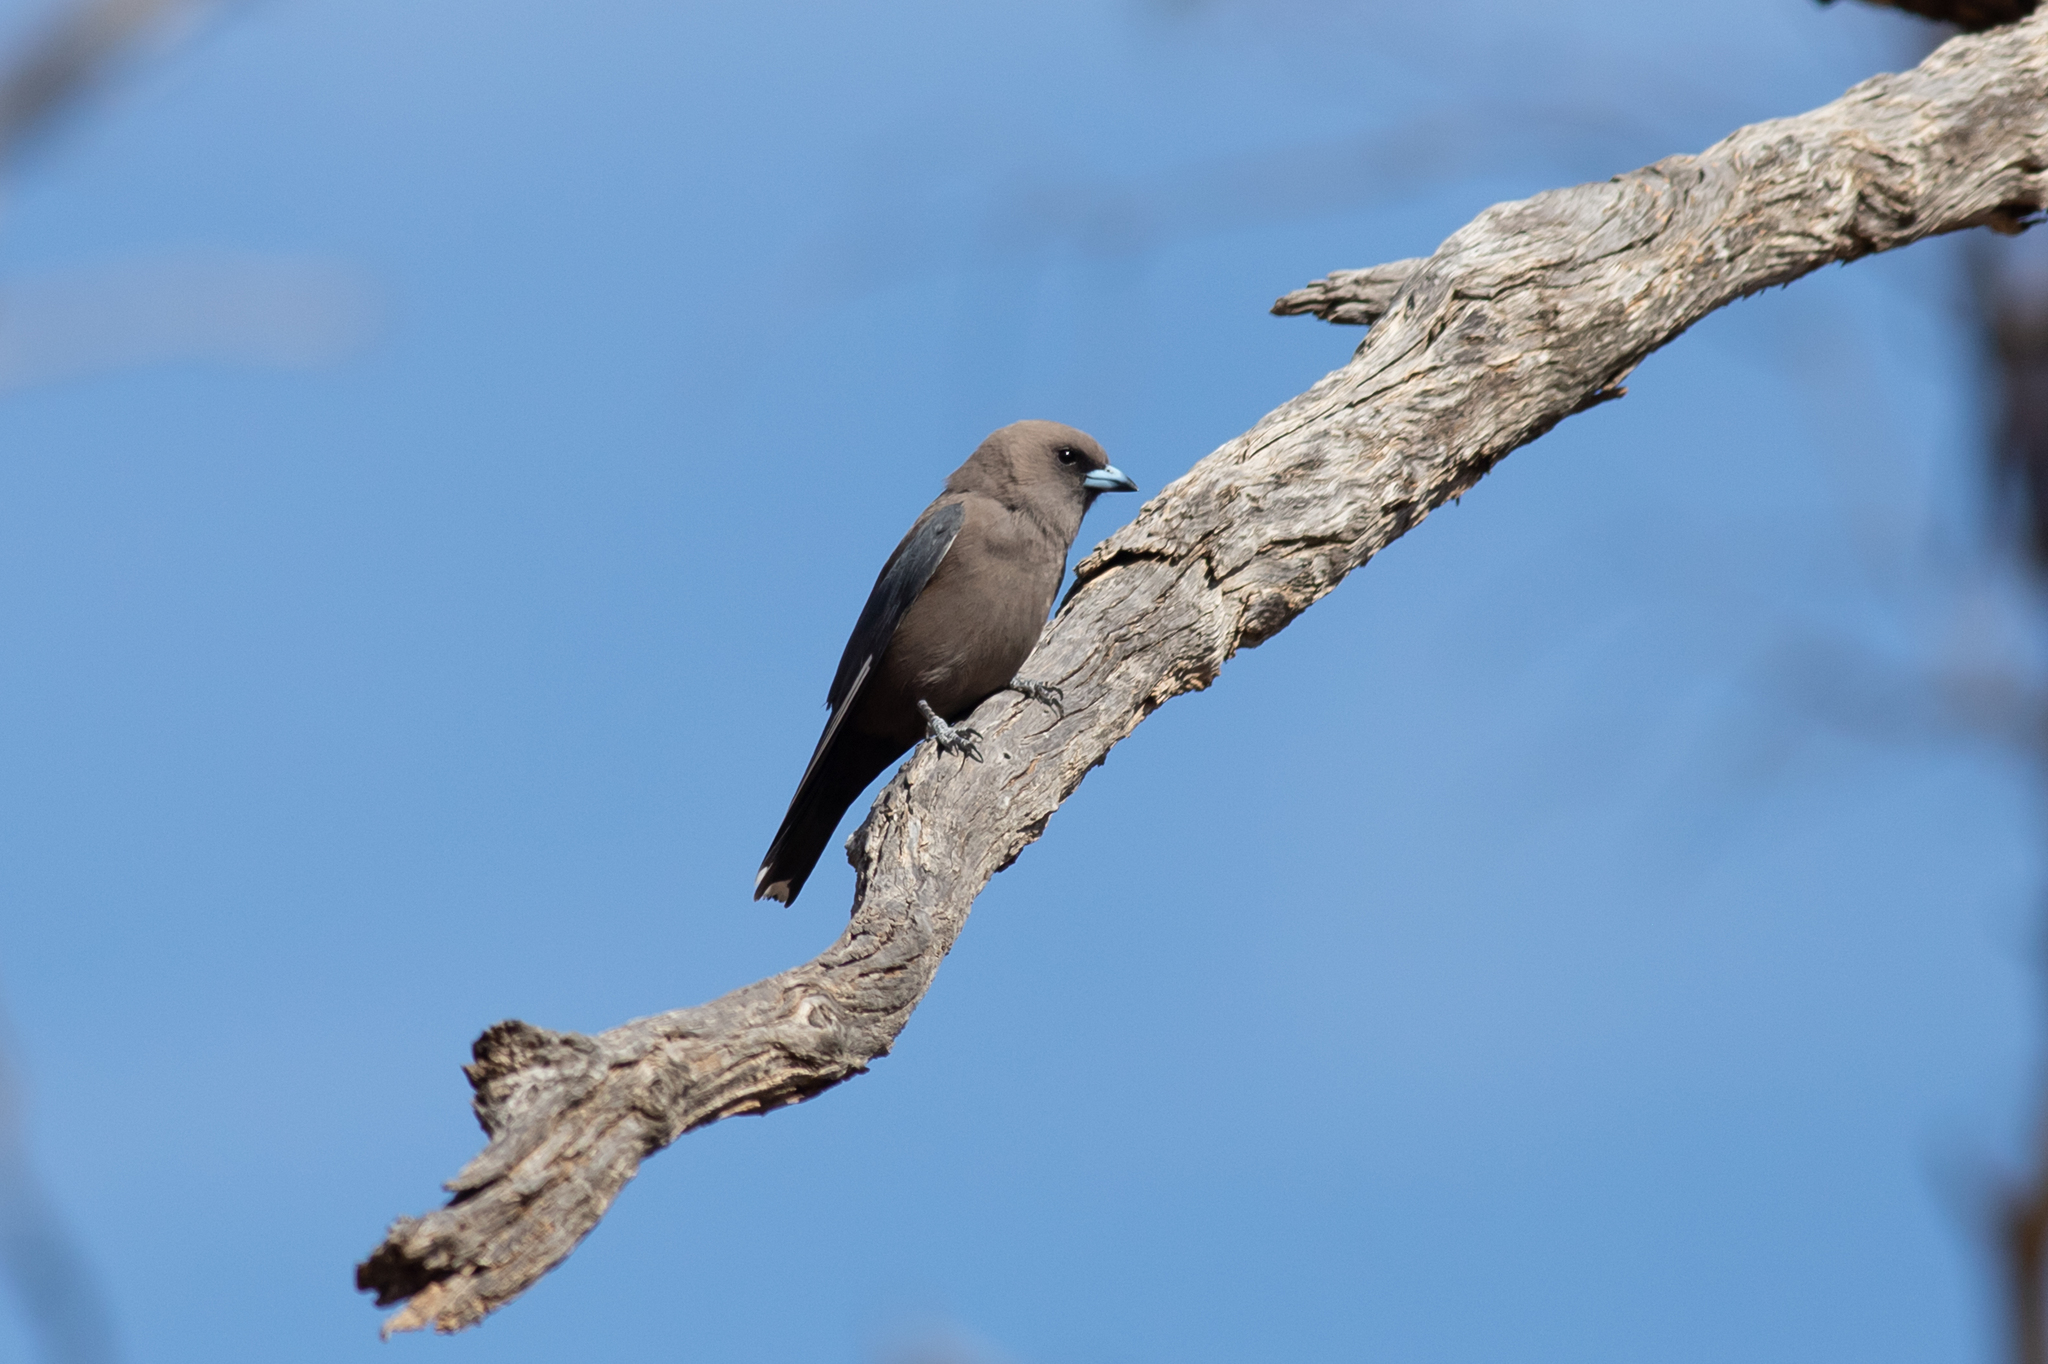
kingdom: Animalia
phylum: Chordata
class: Aves
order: Passeriformes
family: Artamidae
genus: Artamus
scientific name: Artamus cyanopterus
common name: Dusky woodswallow
